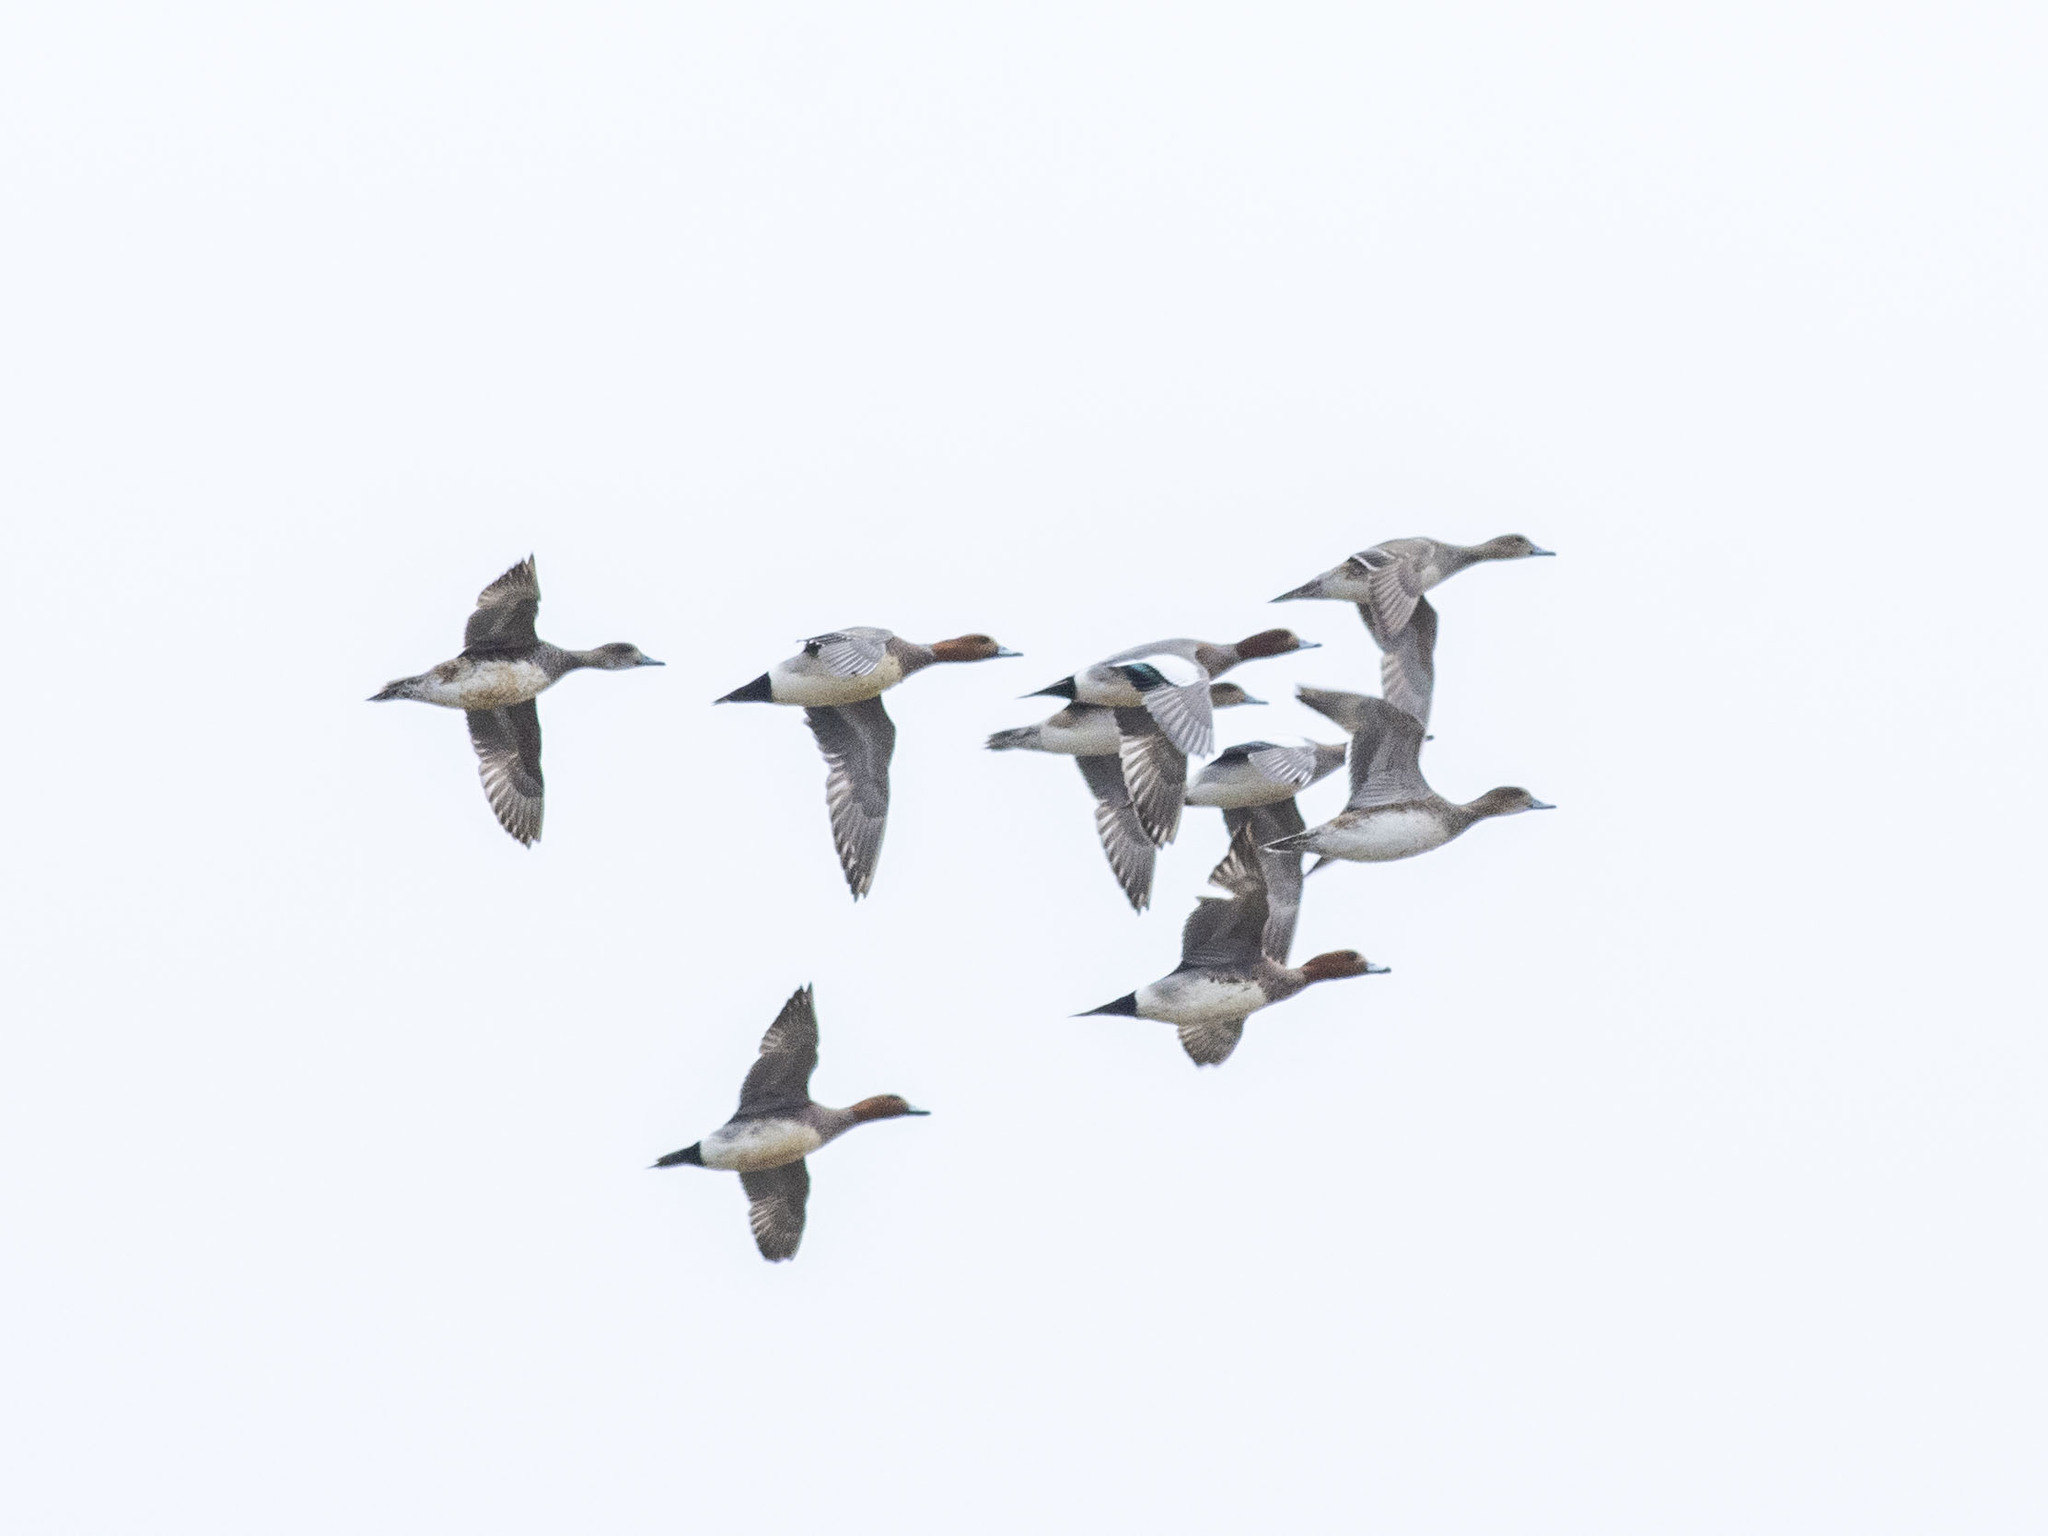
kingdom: Animalia
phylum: Chordata
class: Aves
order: Anseriformes
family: Anatidae
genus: Mareca
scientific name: Mareca penelope
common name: Eurasian wigeon
